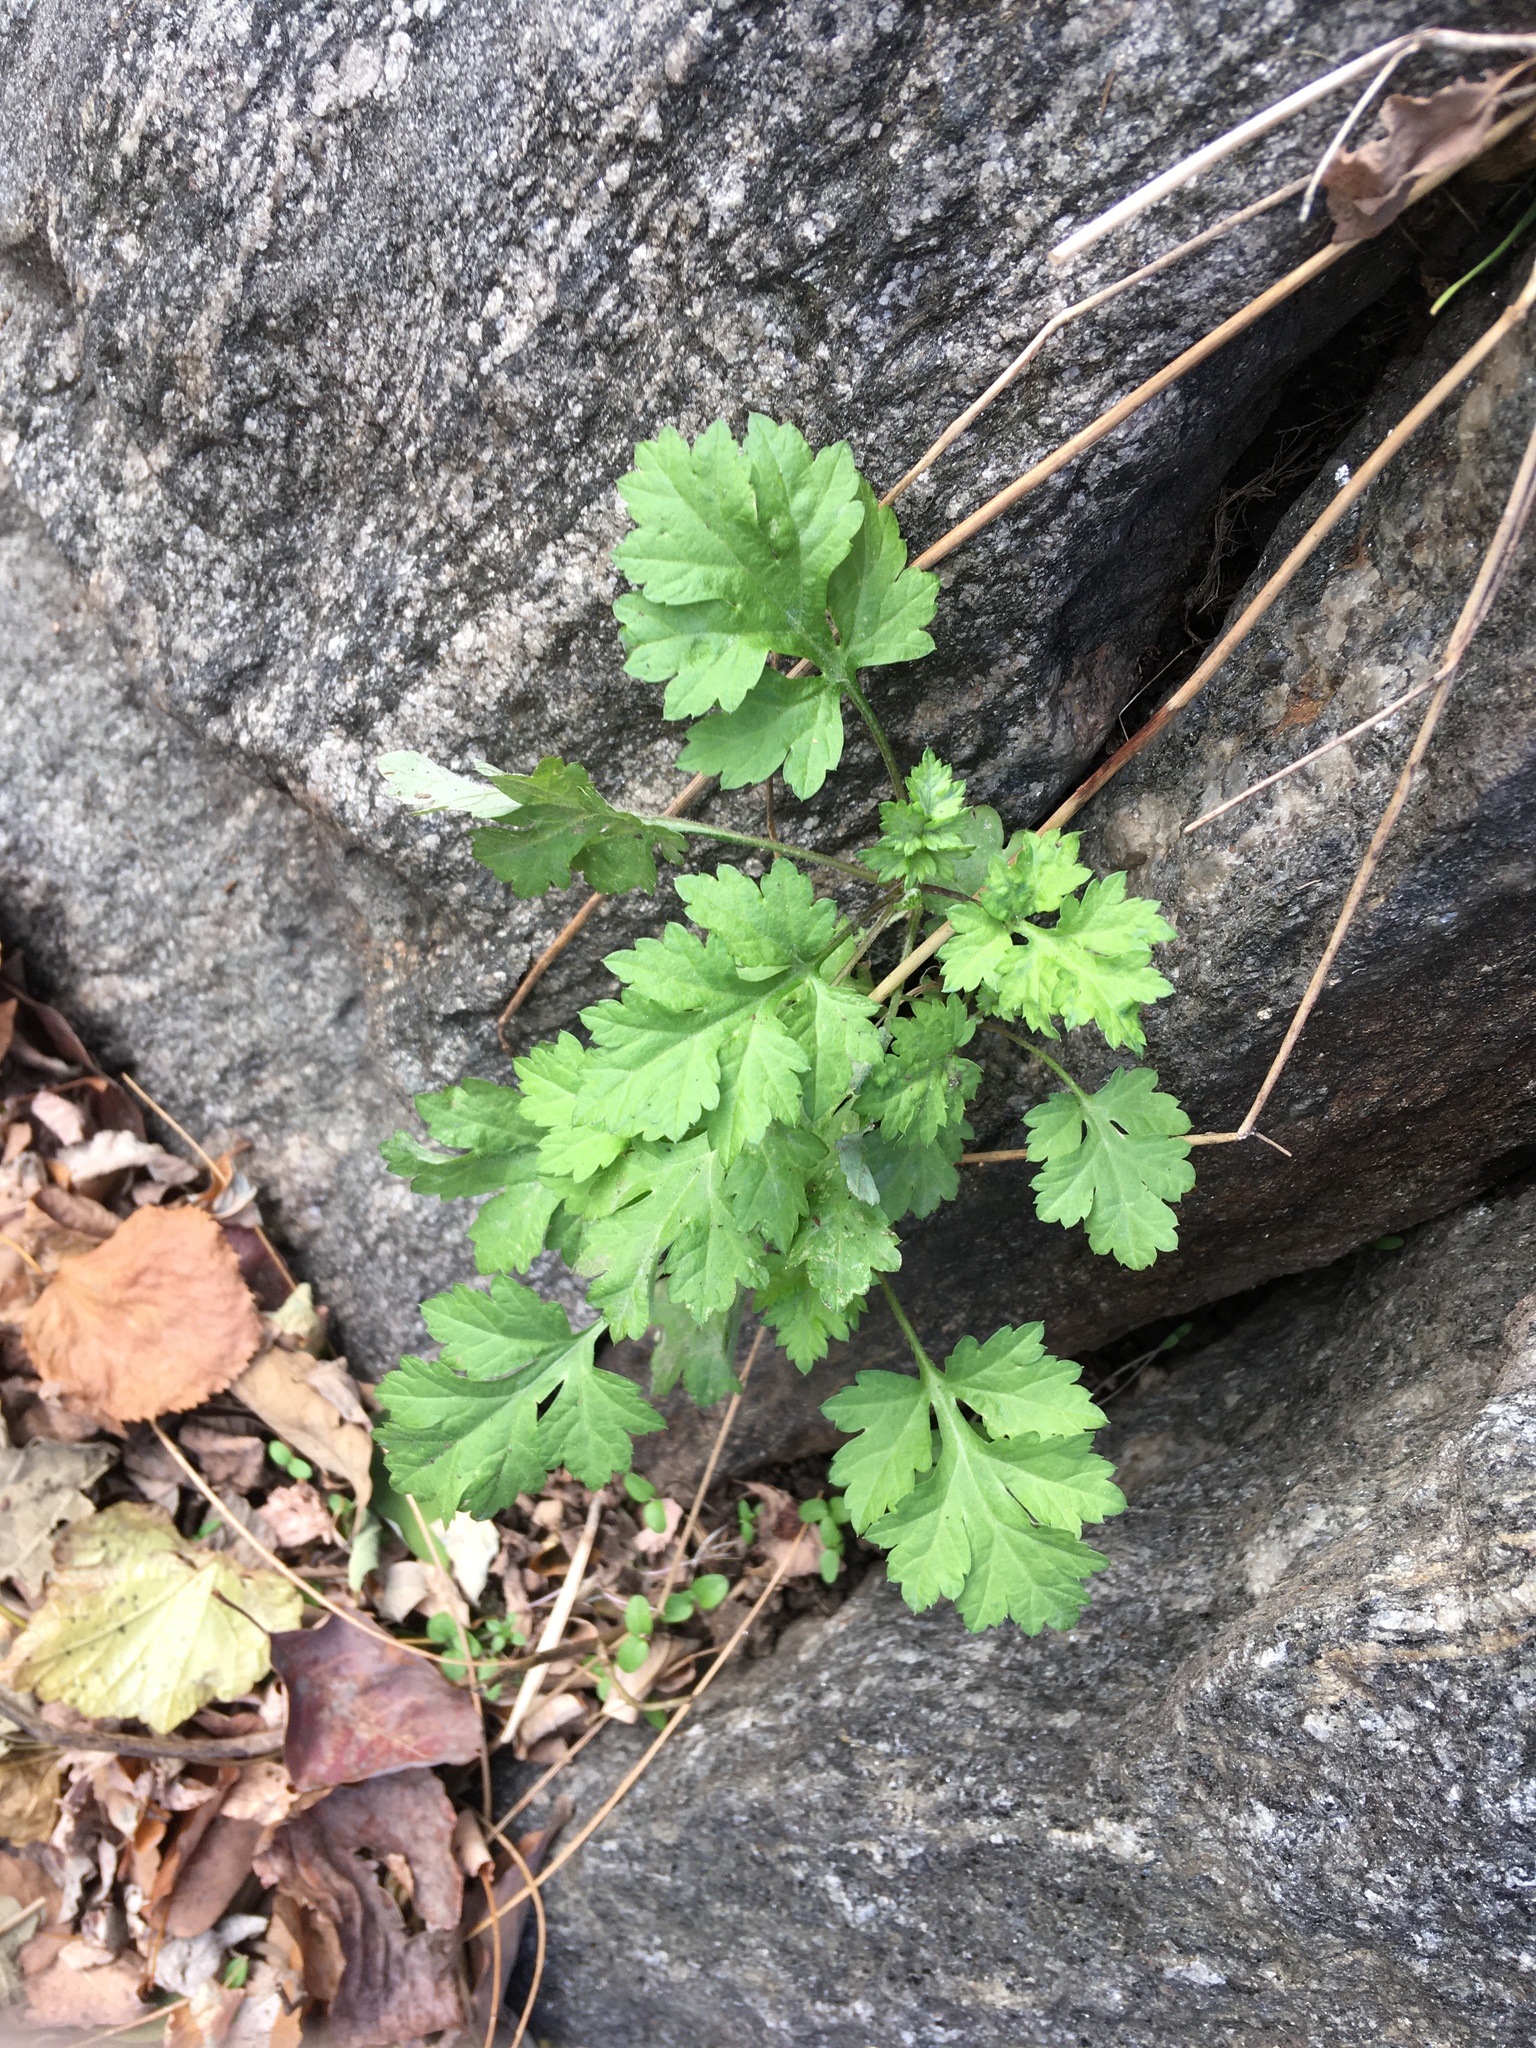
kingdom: Plantae
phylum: Tracheophyta
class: Magnoliopsida
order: Asterales
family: Asteraceae
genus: Artemisia
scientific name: Artemisia vulgaris
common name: Mugwort
